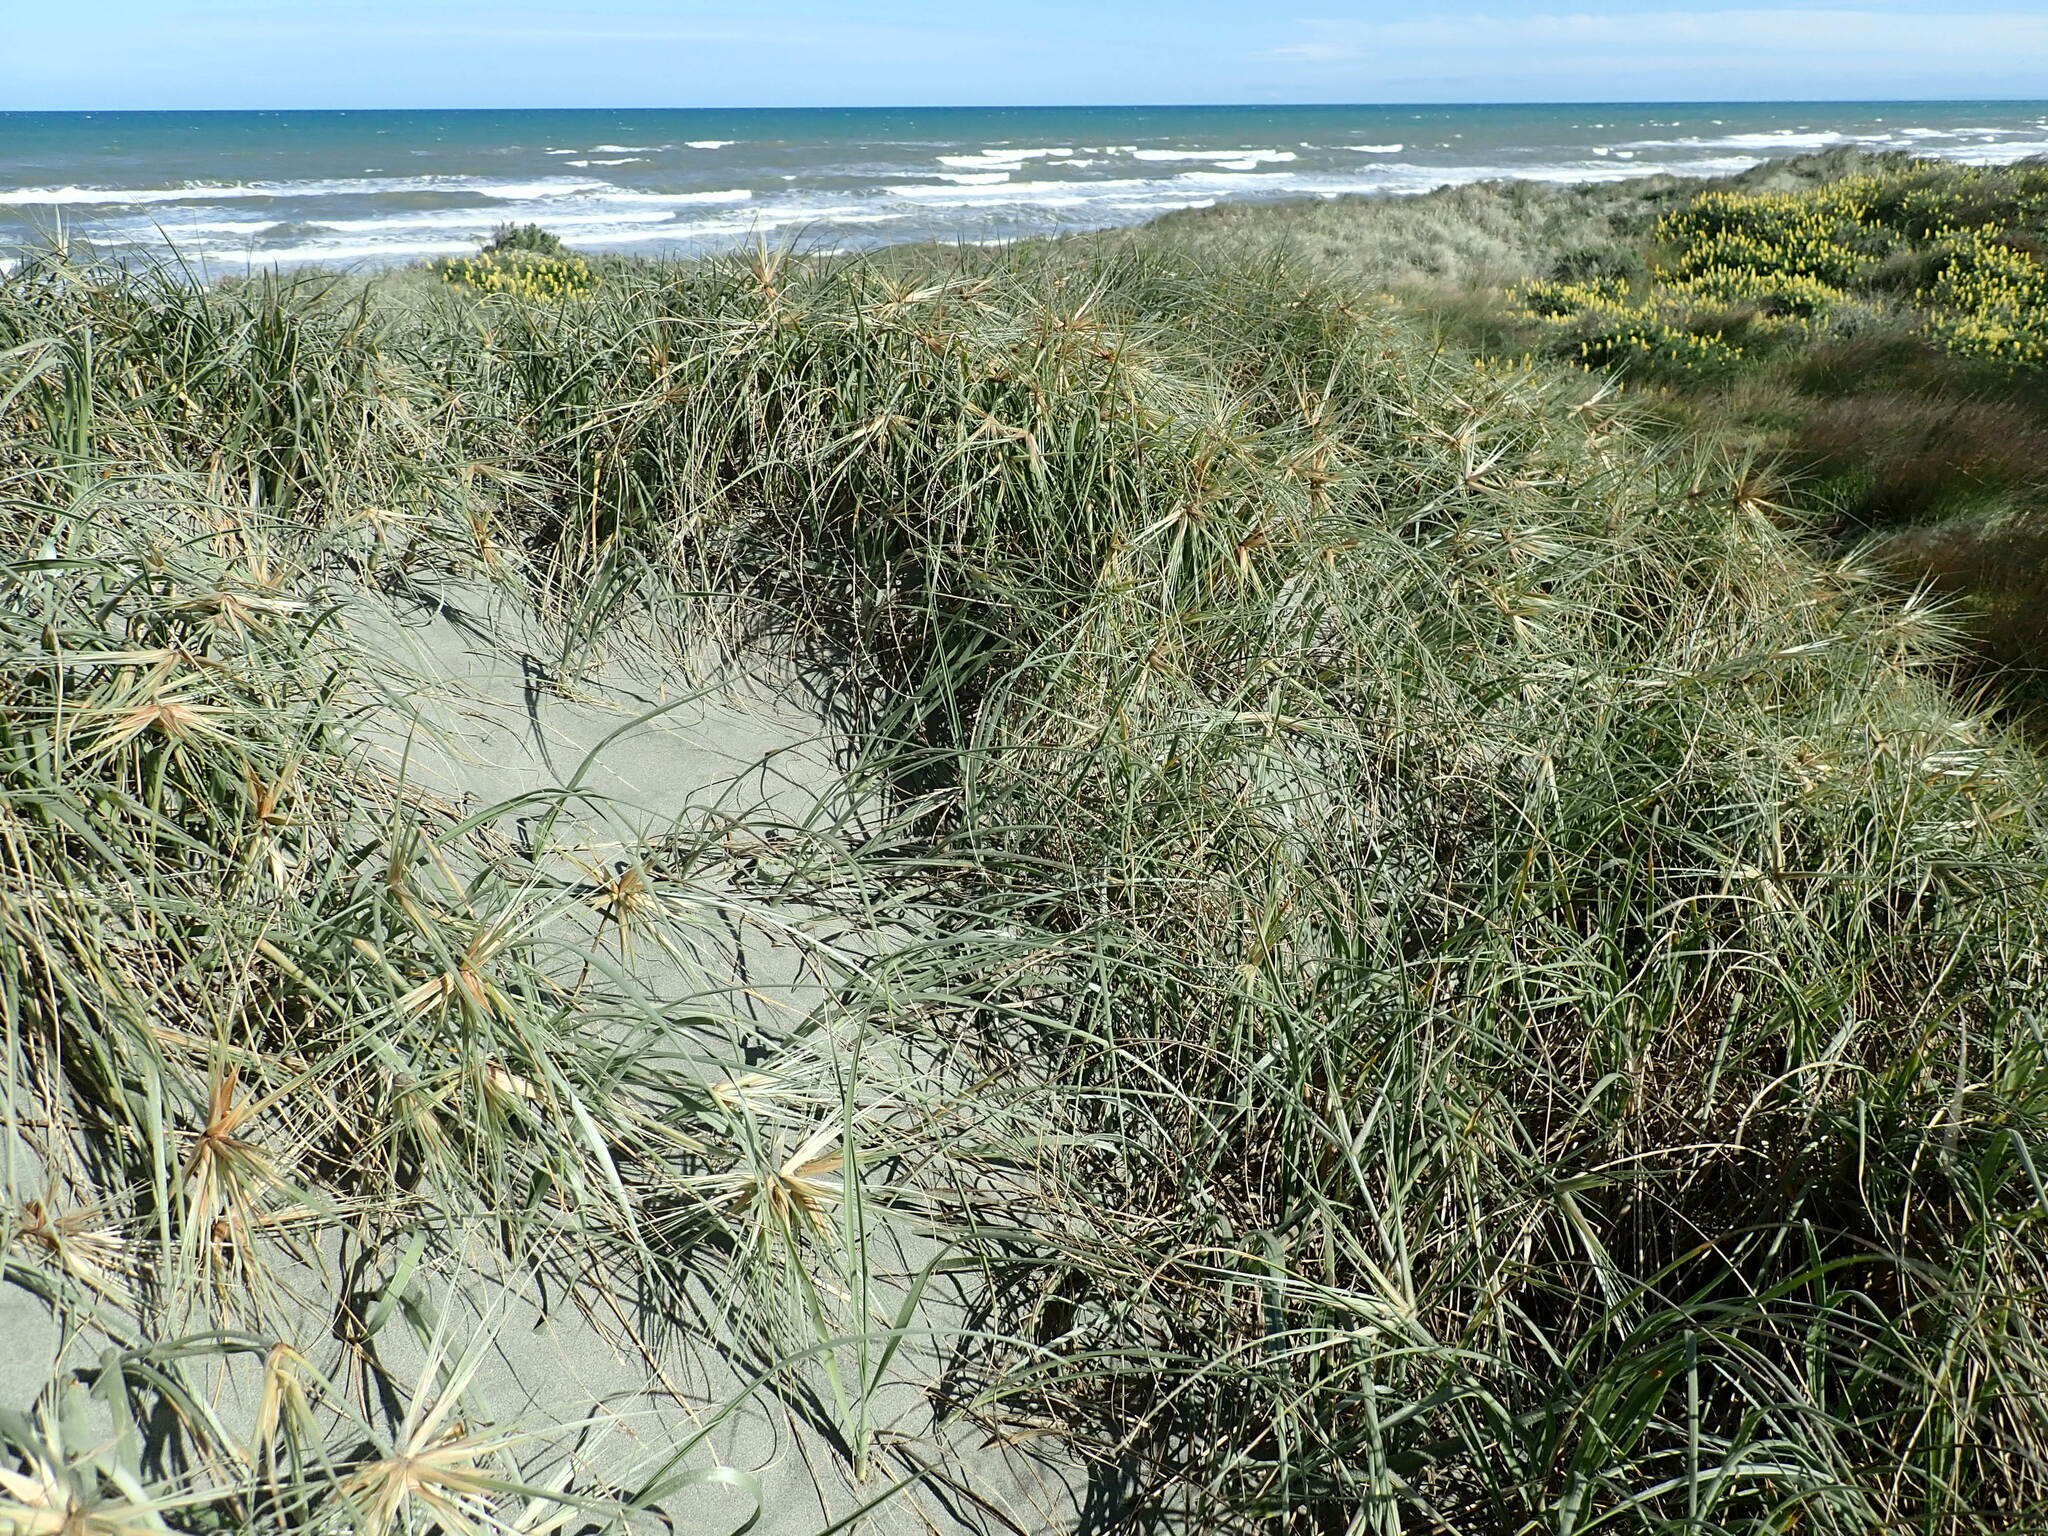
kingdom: Plantae
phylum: Tracheophyta
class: Liliopsida
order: Poales
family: Poaceae
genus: Spinifex
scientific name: Spinifex sericeus
